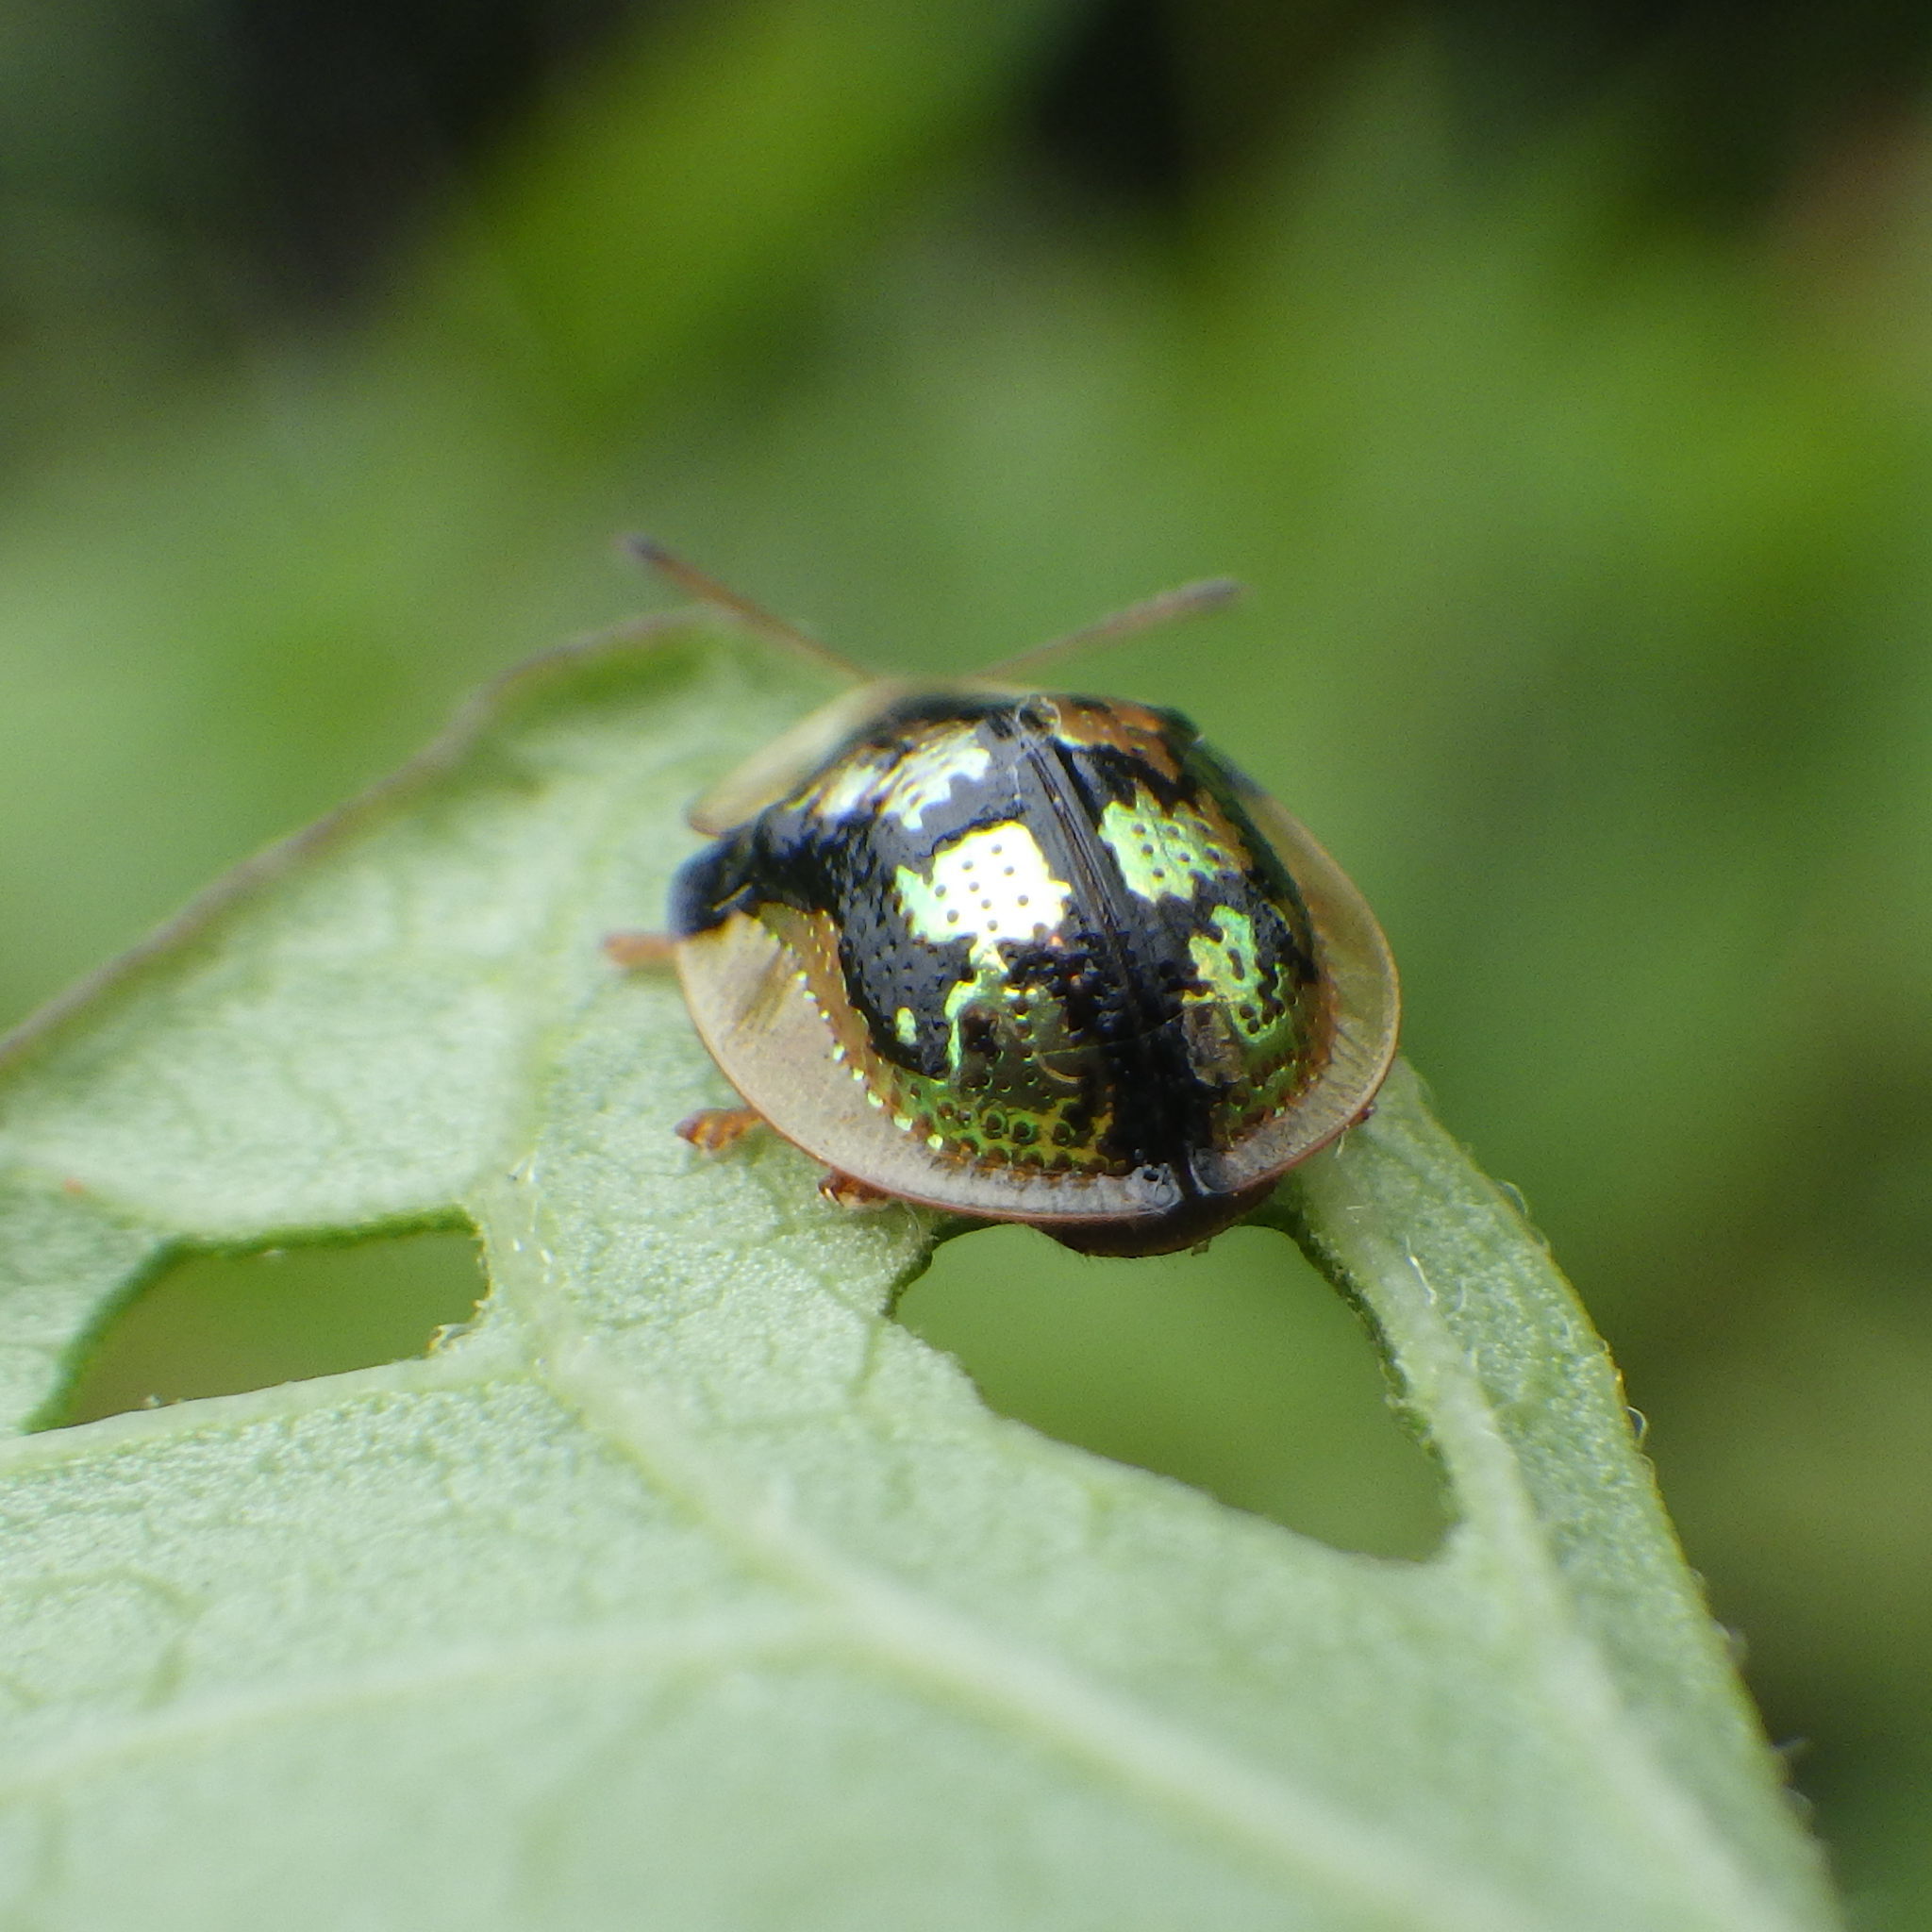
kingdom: Animalia
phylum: Arthropoda
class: Insecta
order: Coleoptera
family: Chrysomelidae
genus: Deloyala
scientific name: Deloyala guttata
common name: Mottled tortoise beetle
